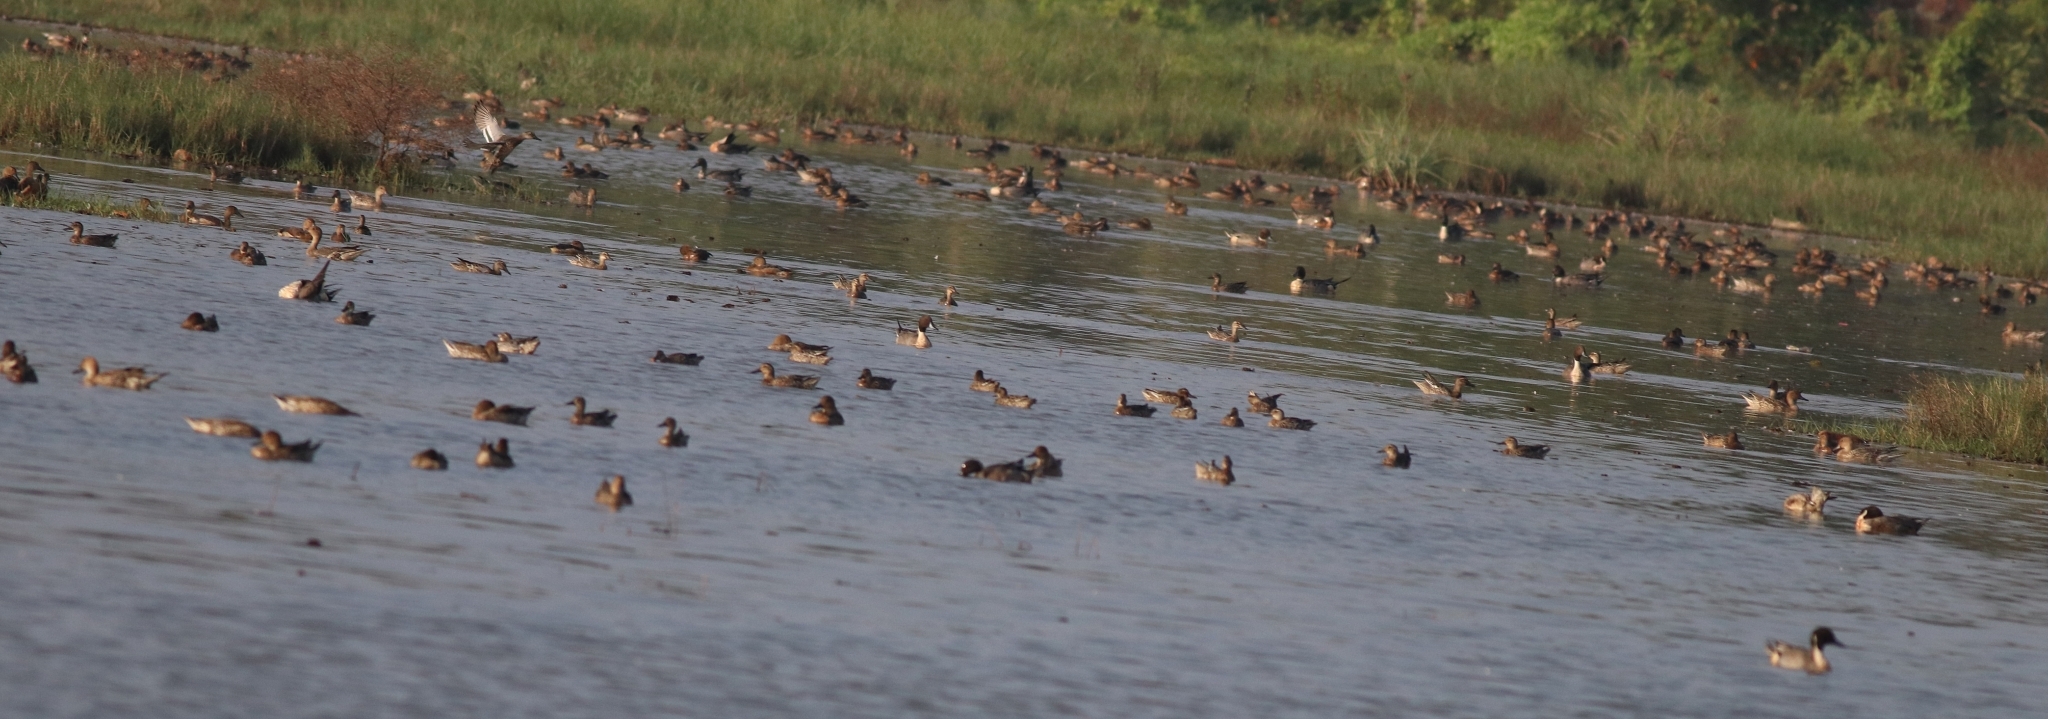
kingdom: Animalia
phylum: Chordata
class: Aves
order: Anseriformes
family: Anatidae
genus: Anas
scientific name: Anas acuta
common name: Northern pintail
